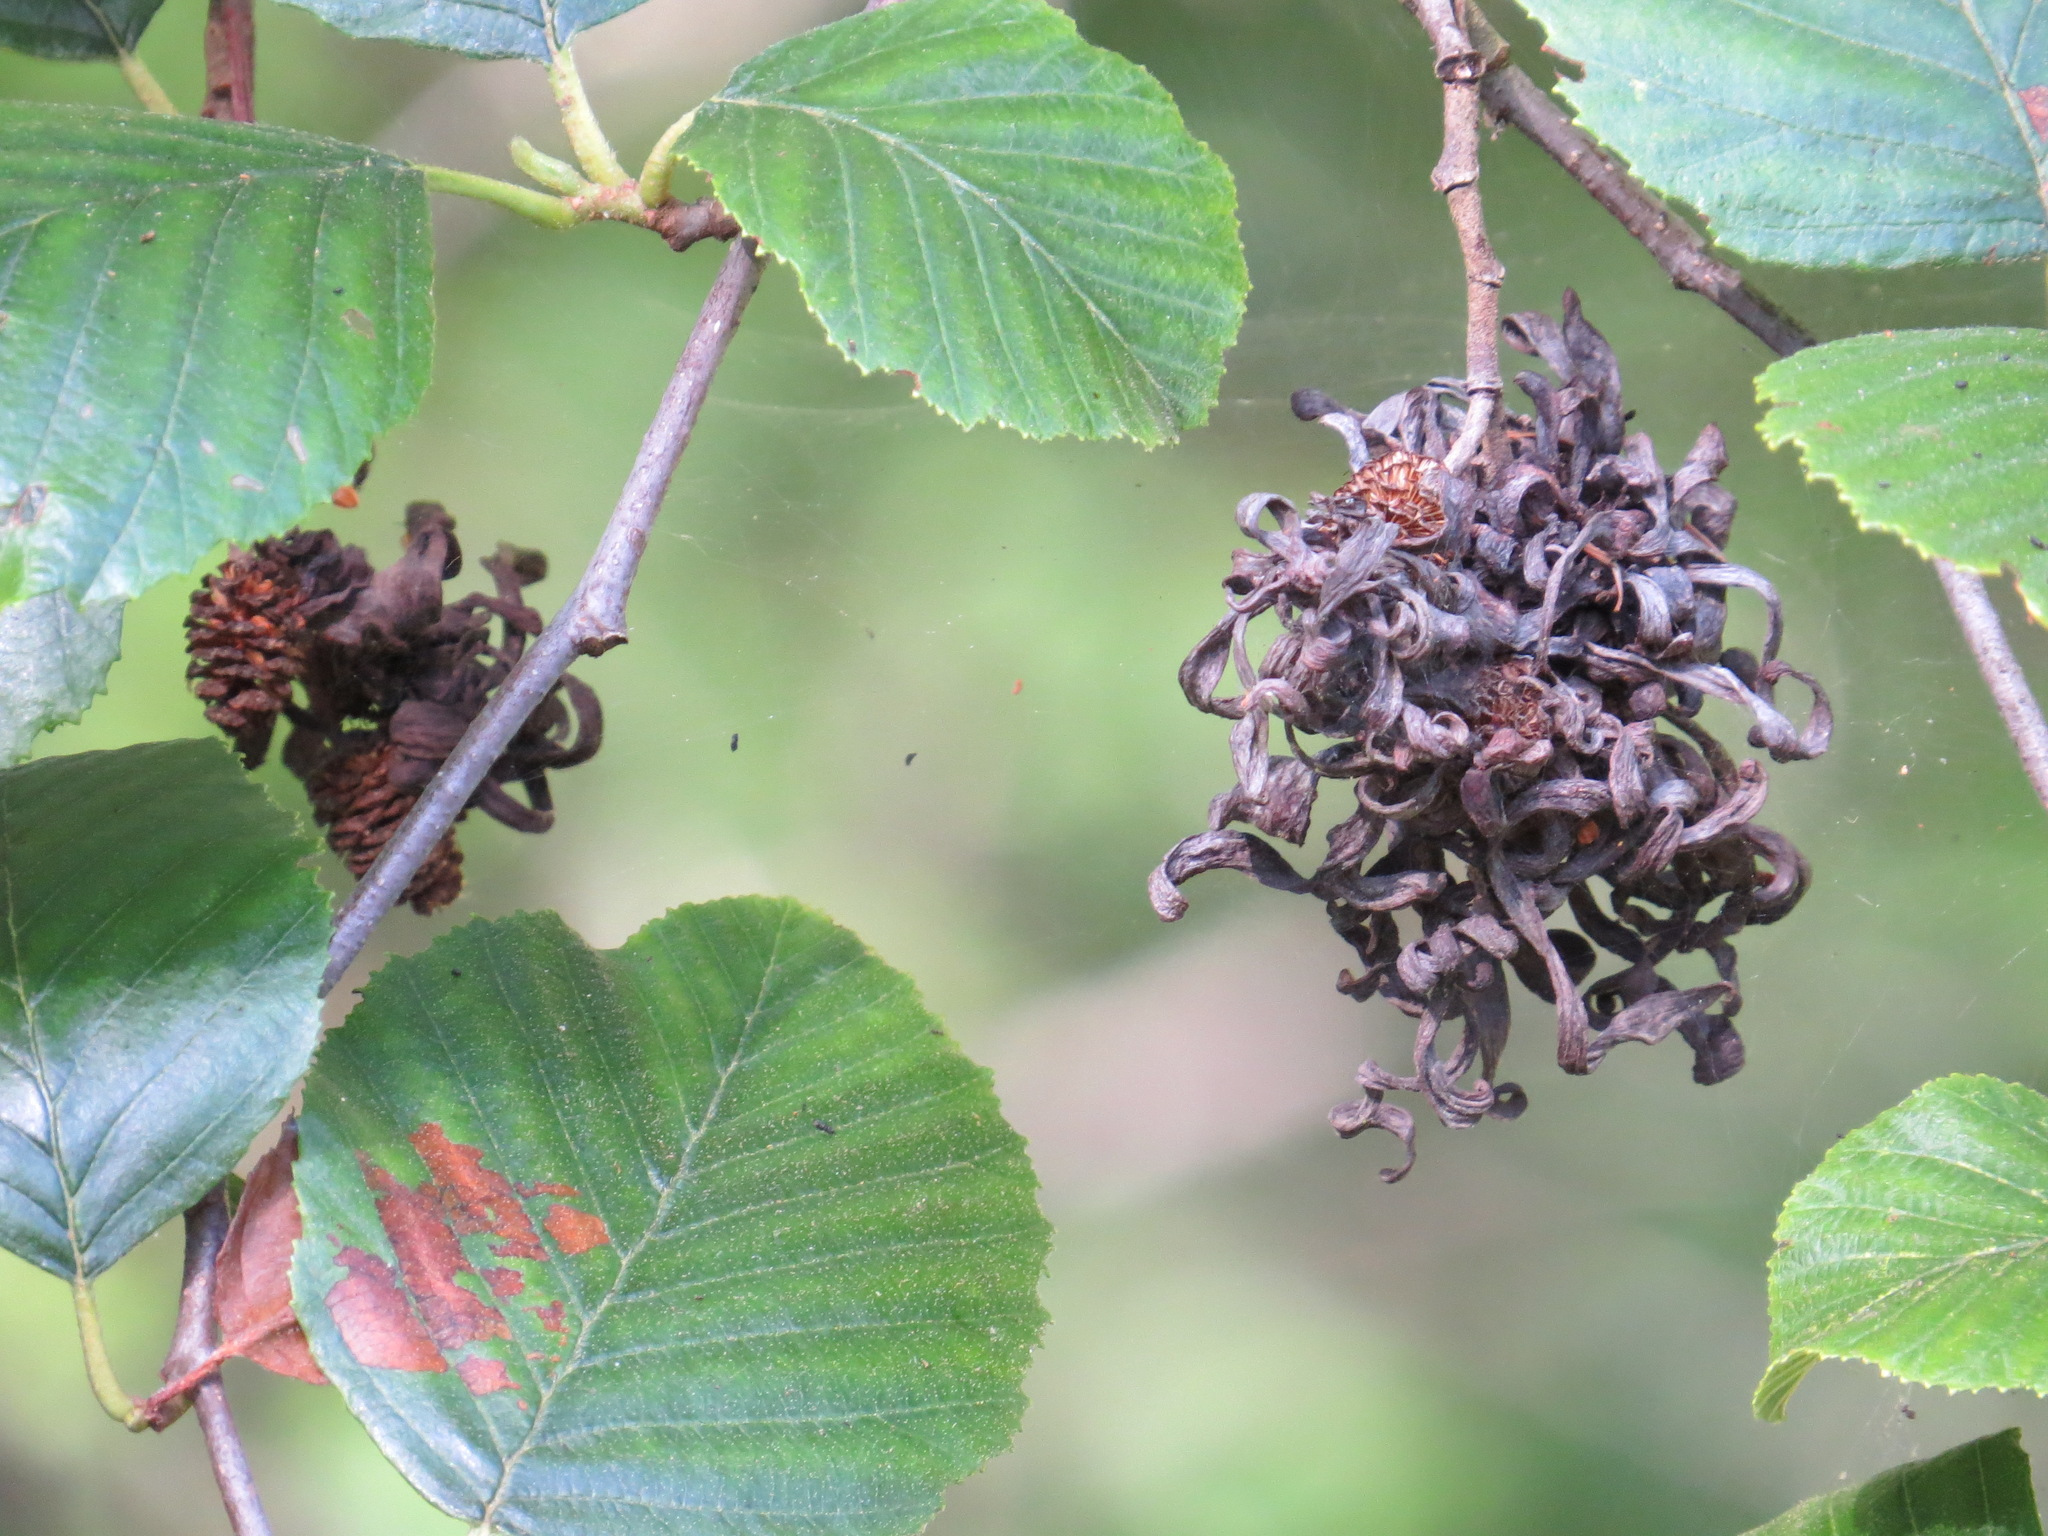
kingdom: Fungi
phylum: Ascomycota
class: Taphrinomycetes
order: Taphrinales
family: Taphrinaceae
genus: Taphrina
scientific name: Taphrina occidentalis
